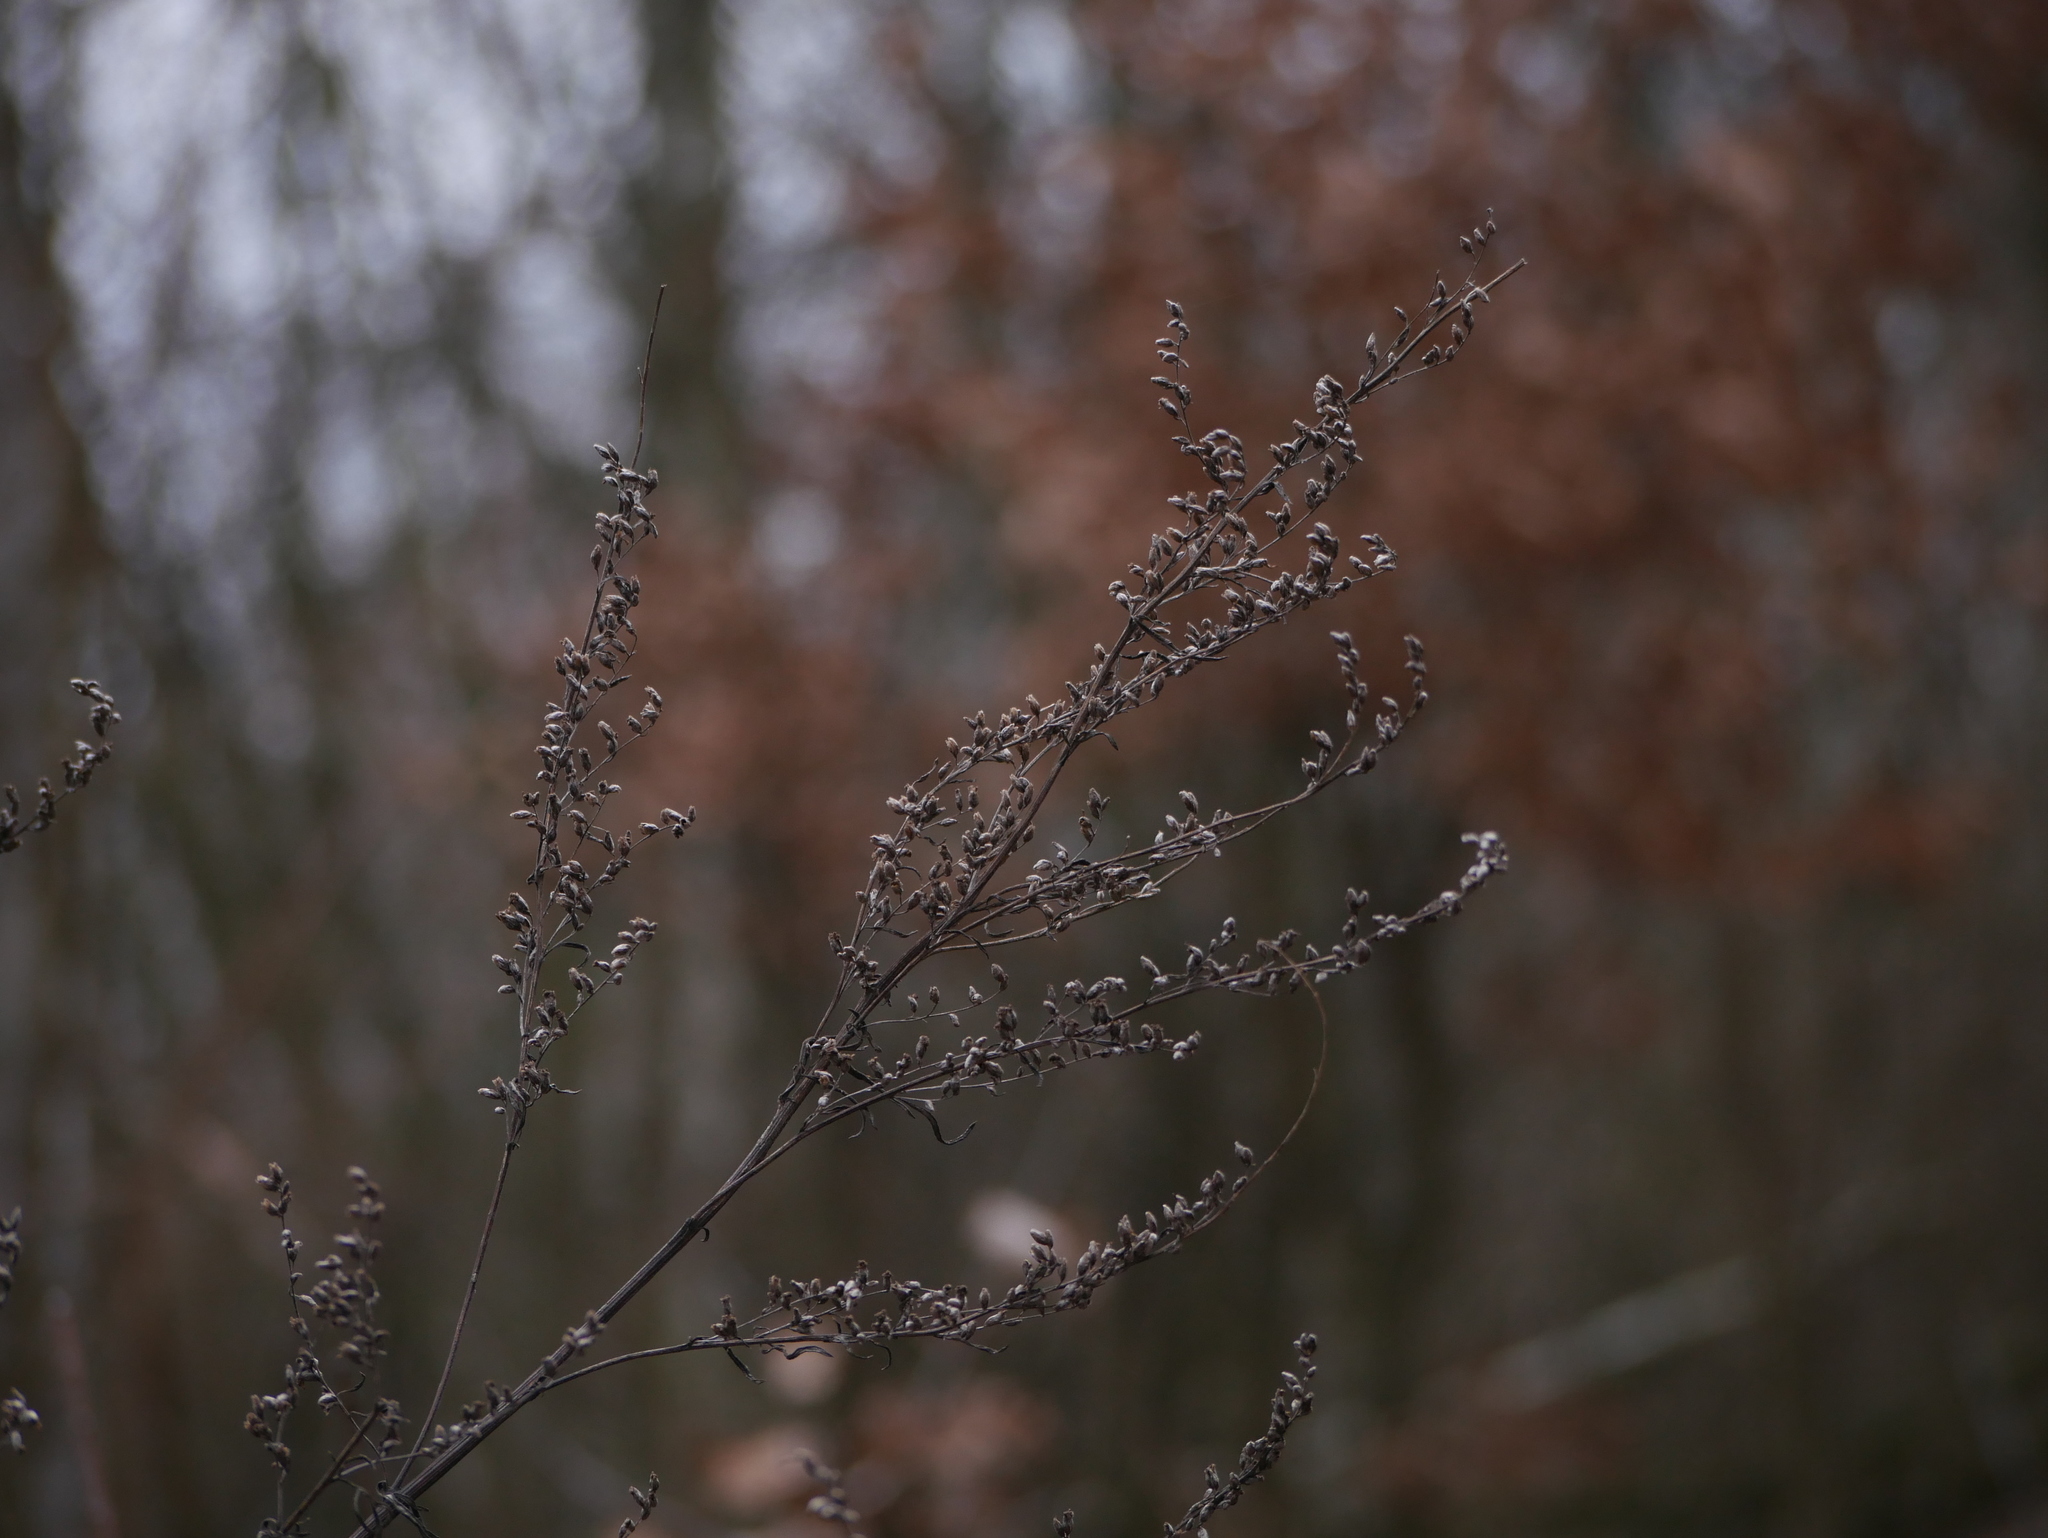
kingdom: Plantae
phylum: Tracheophyta
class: Magnoliopsida
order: Asterales
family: Asteraceae
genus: Artemisia
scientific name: Artemisia vulgaris
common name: Mugwort
